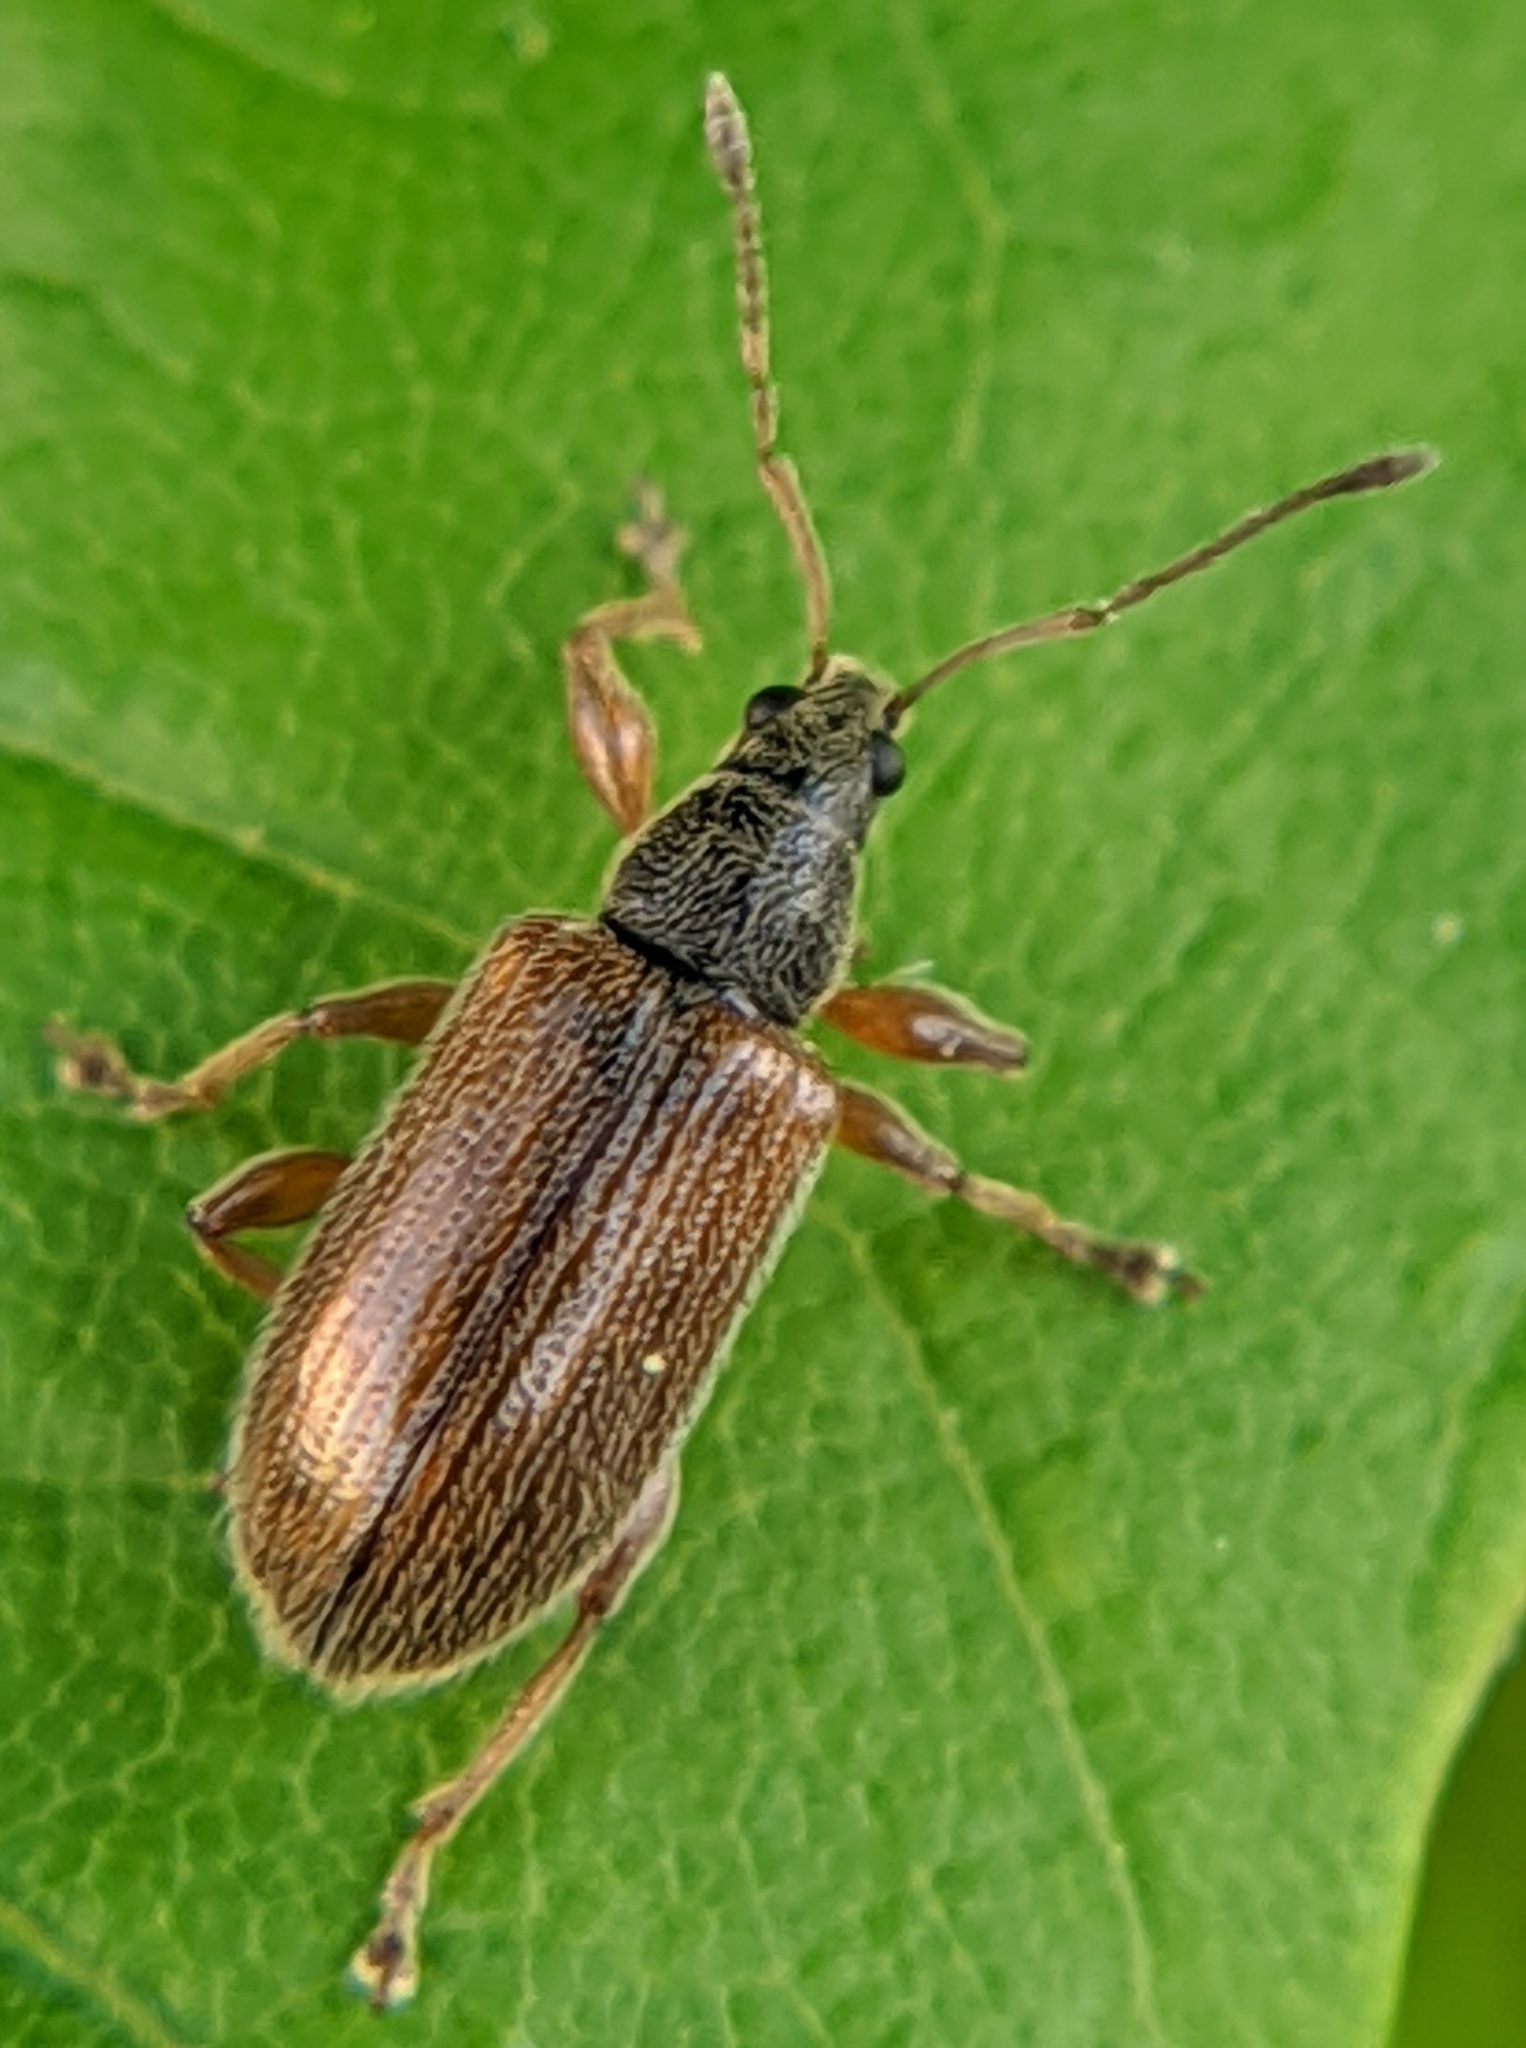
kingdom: Animalia
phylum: Arthropoda
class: Insecta
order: Coleoptera
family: Curculionidae
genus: Phyllobius
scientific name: Phyllobius oblongus
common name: Brown leaf weevil
